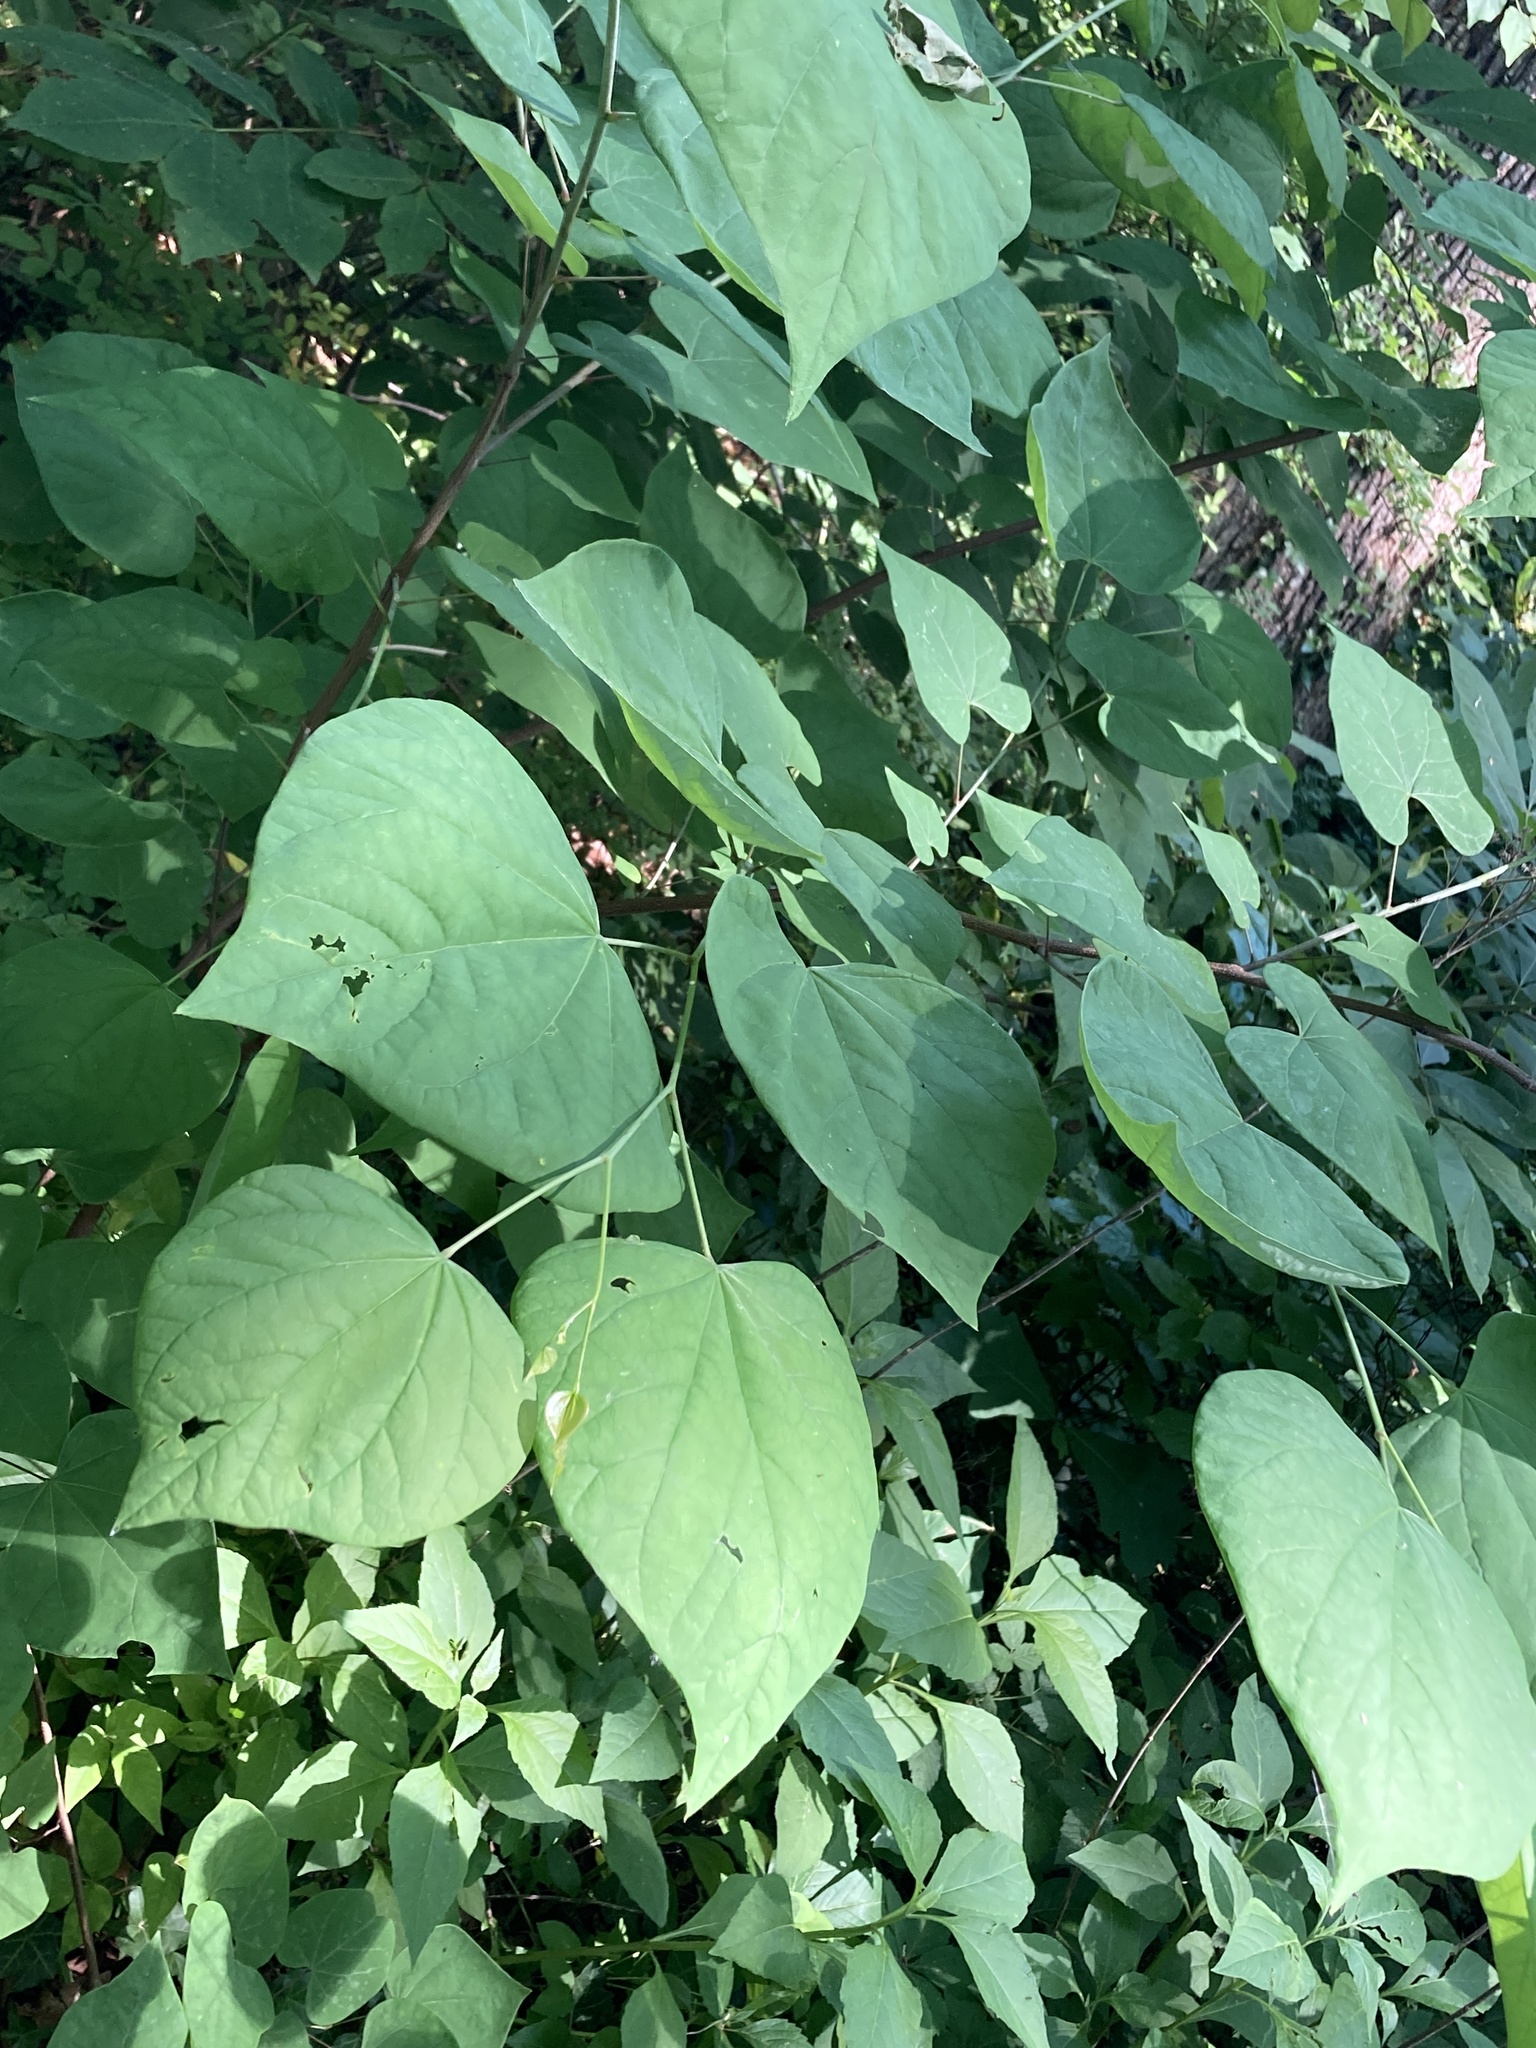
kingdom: Plantae
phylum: Tracheophyta
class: Magnoliopsida
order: Fabales
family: Fabaceae
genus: Cercis
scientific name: Cercis canadensis
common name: Eastern redbud
